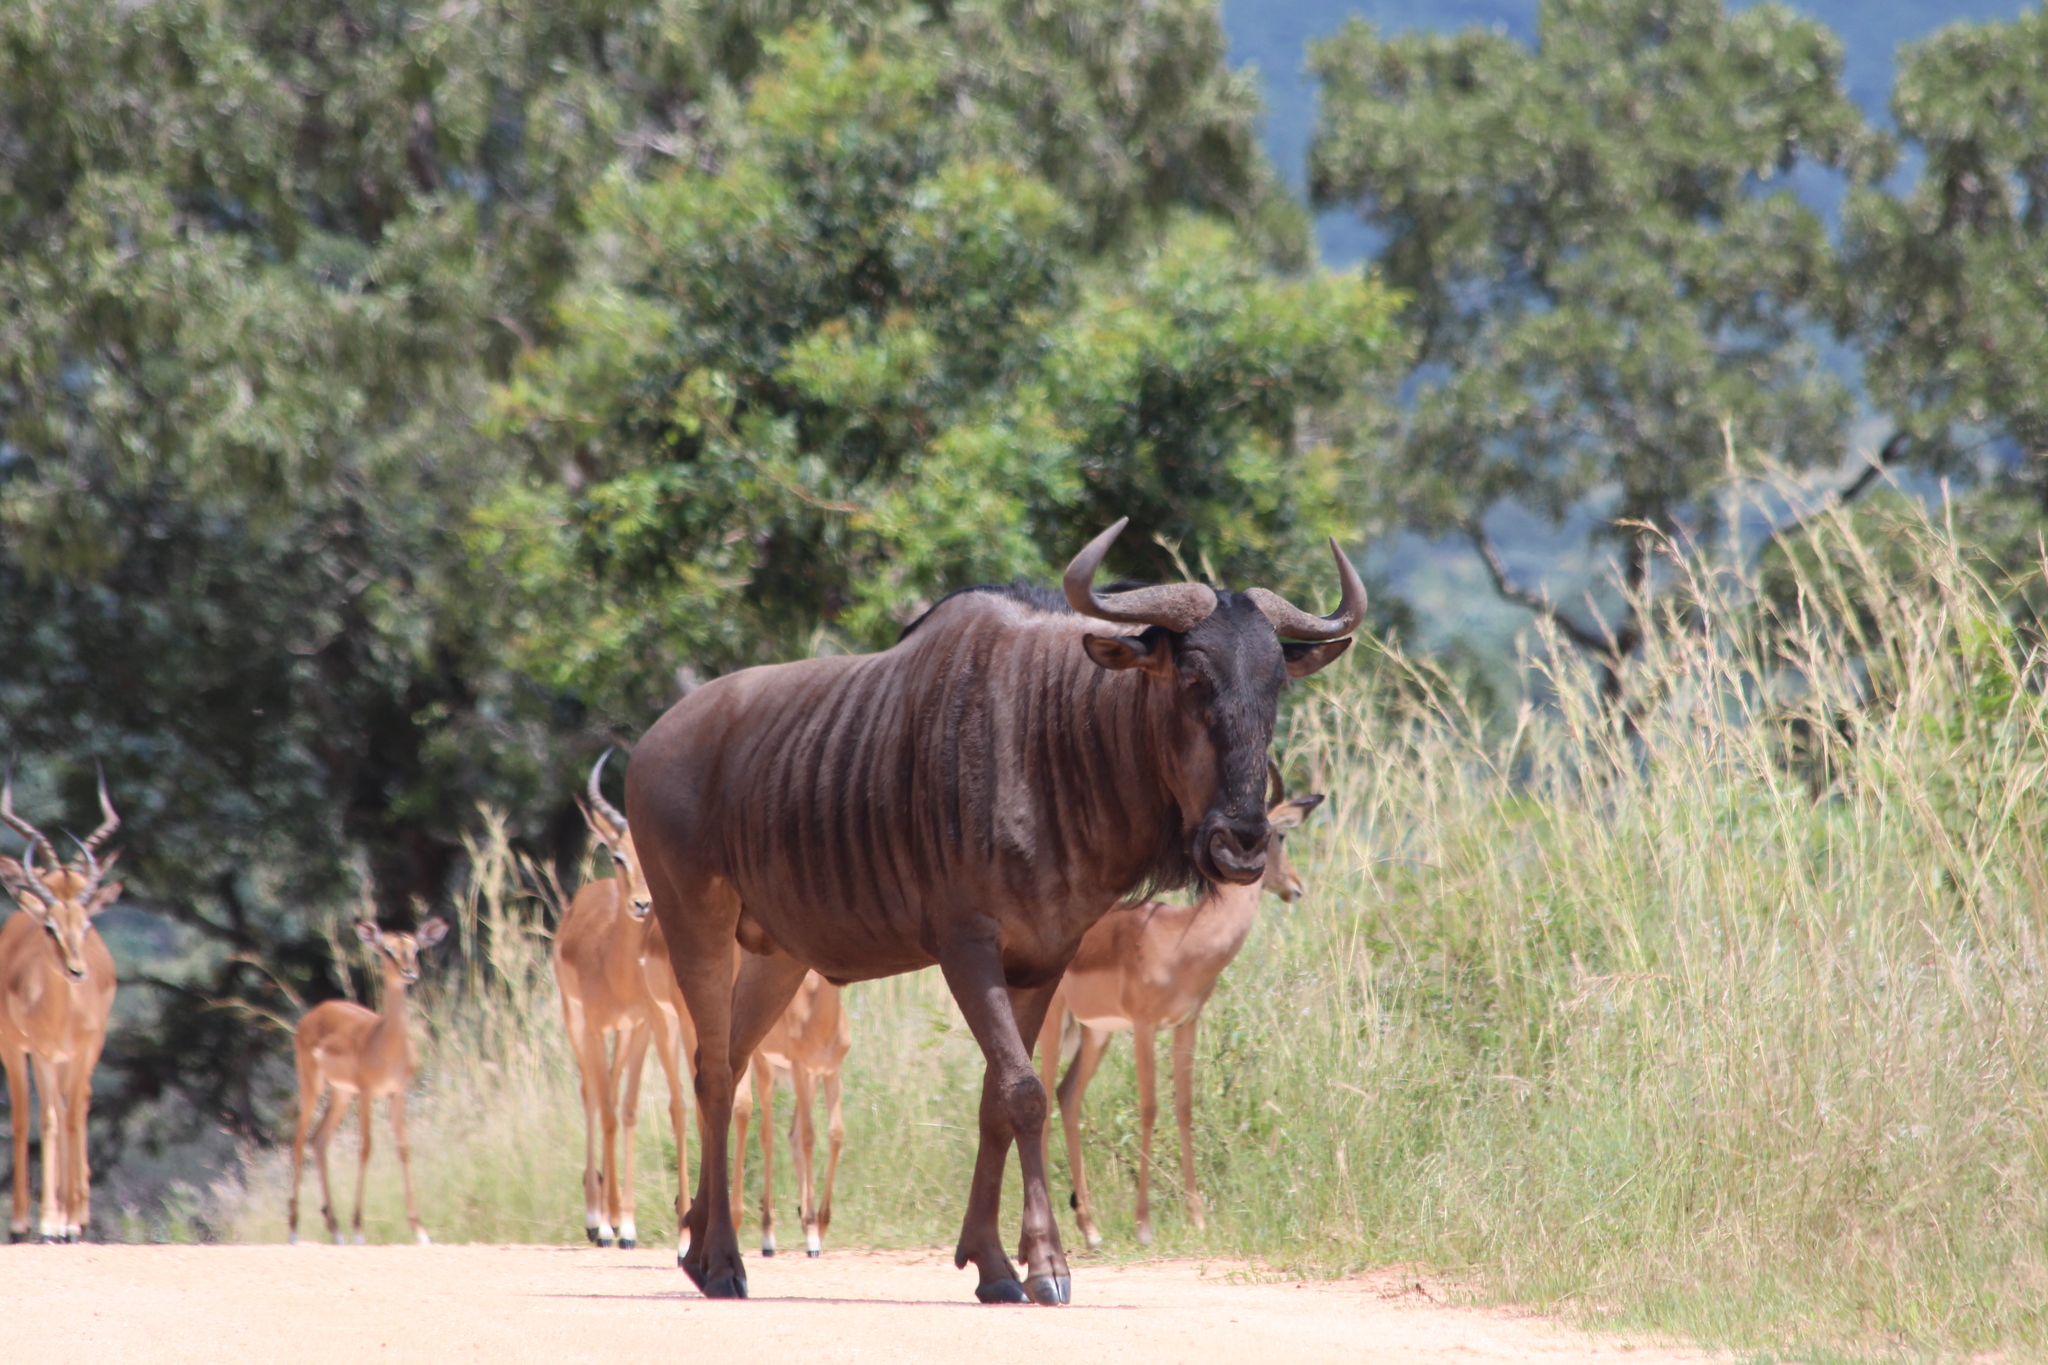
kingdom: Animalia
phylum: Chordata
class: Mammalia
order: Artiodactyla
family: Bovidae
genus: Connochaetes
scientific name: Connochaetes taurinus
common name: Blue wildebeest
